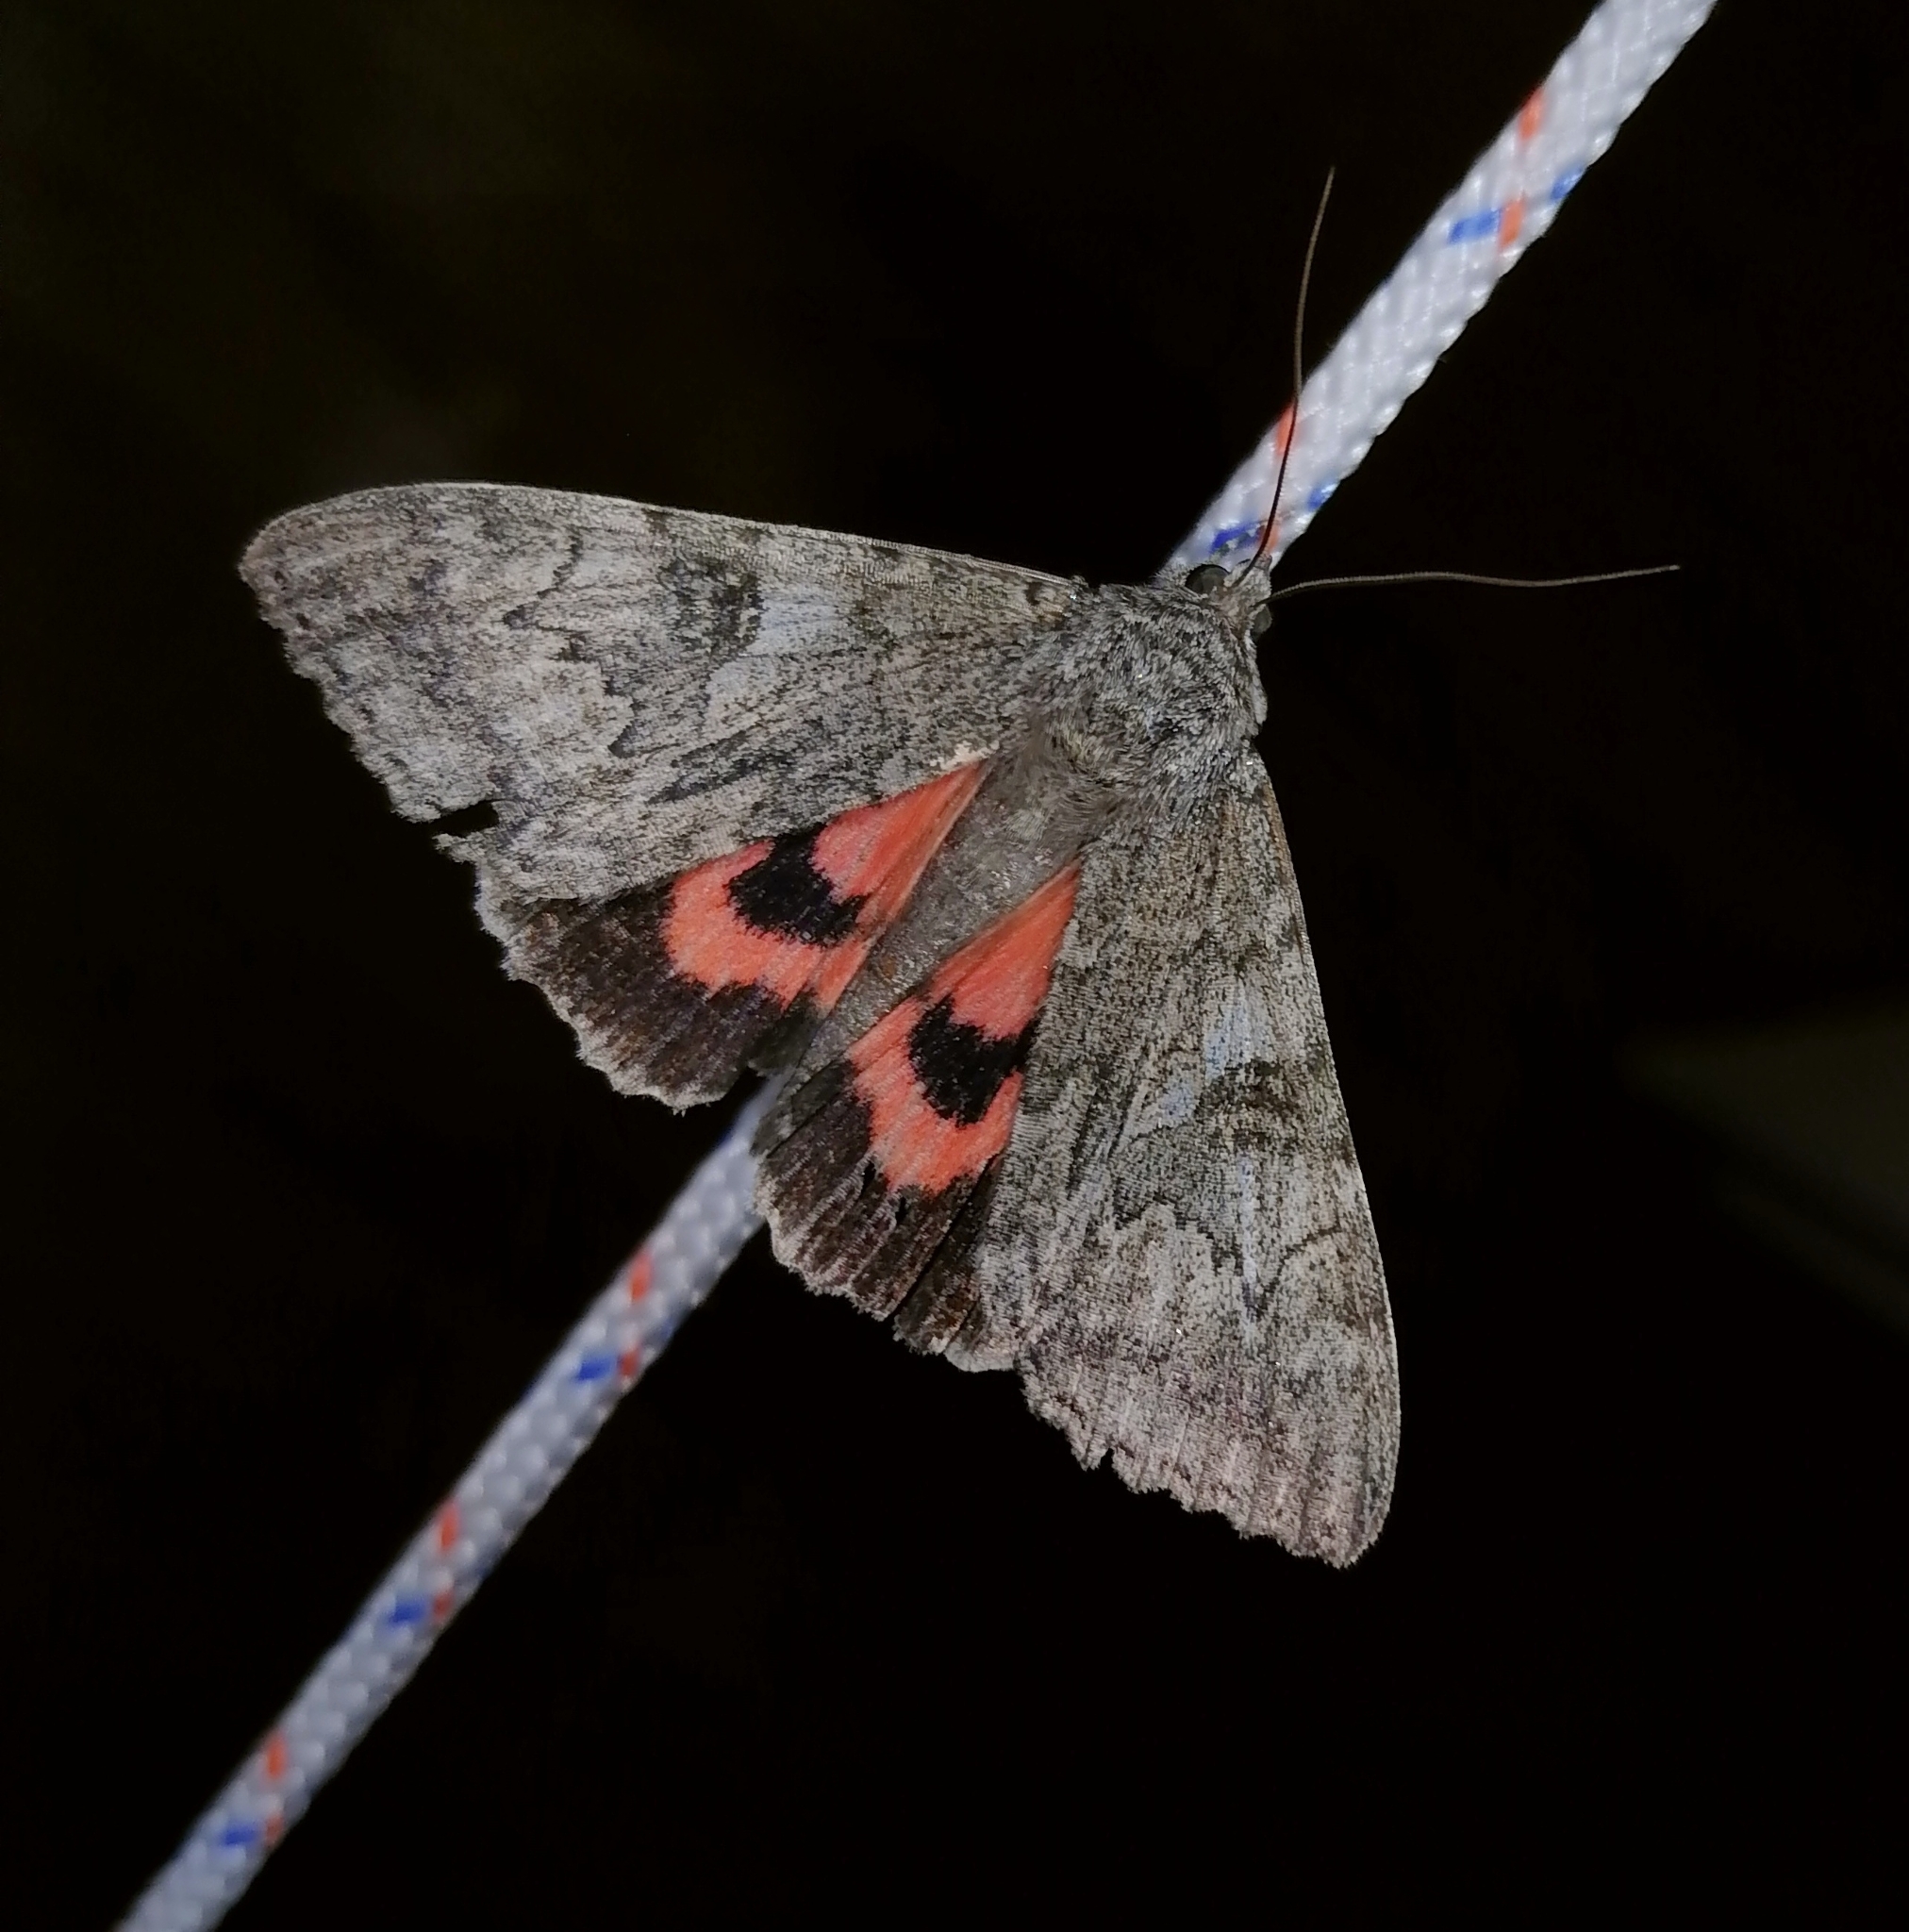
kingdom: Animalia
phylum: Arthropoda
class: Insecta
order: Lepidoptera
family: Erebidae
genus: Catocala
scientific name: Catocala nupta
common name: Red underwing
